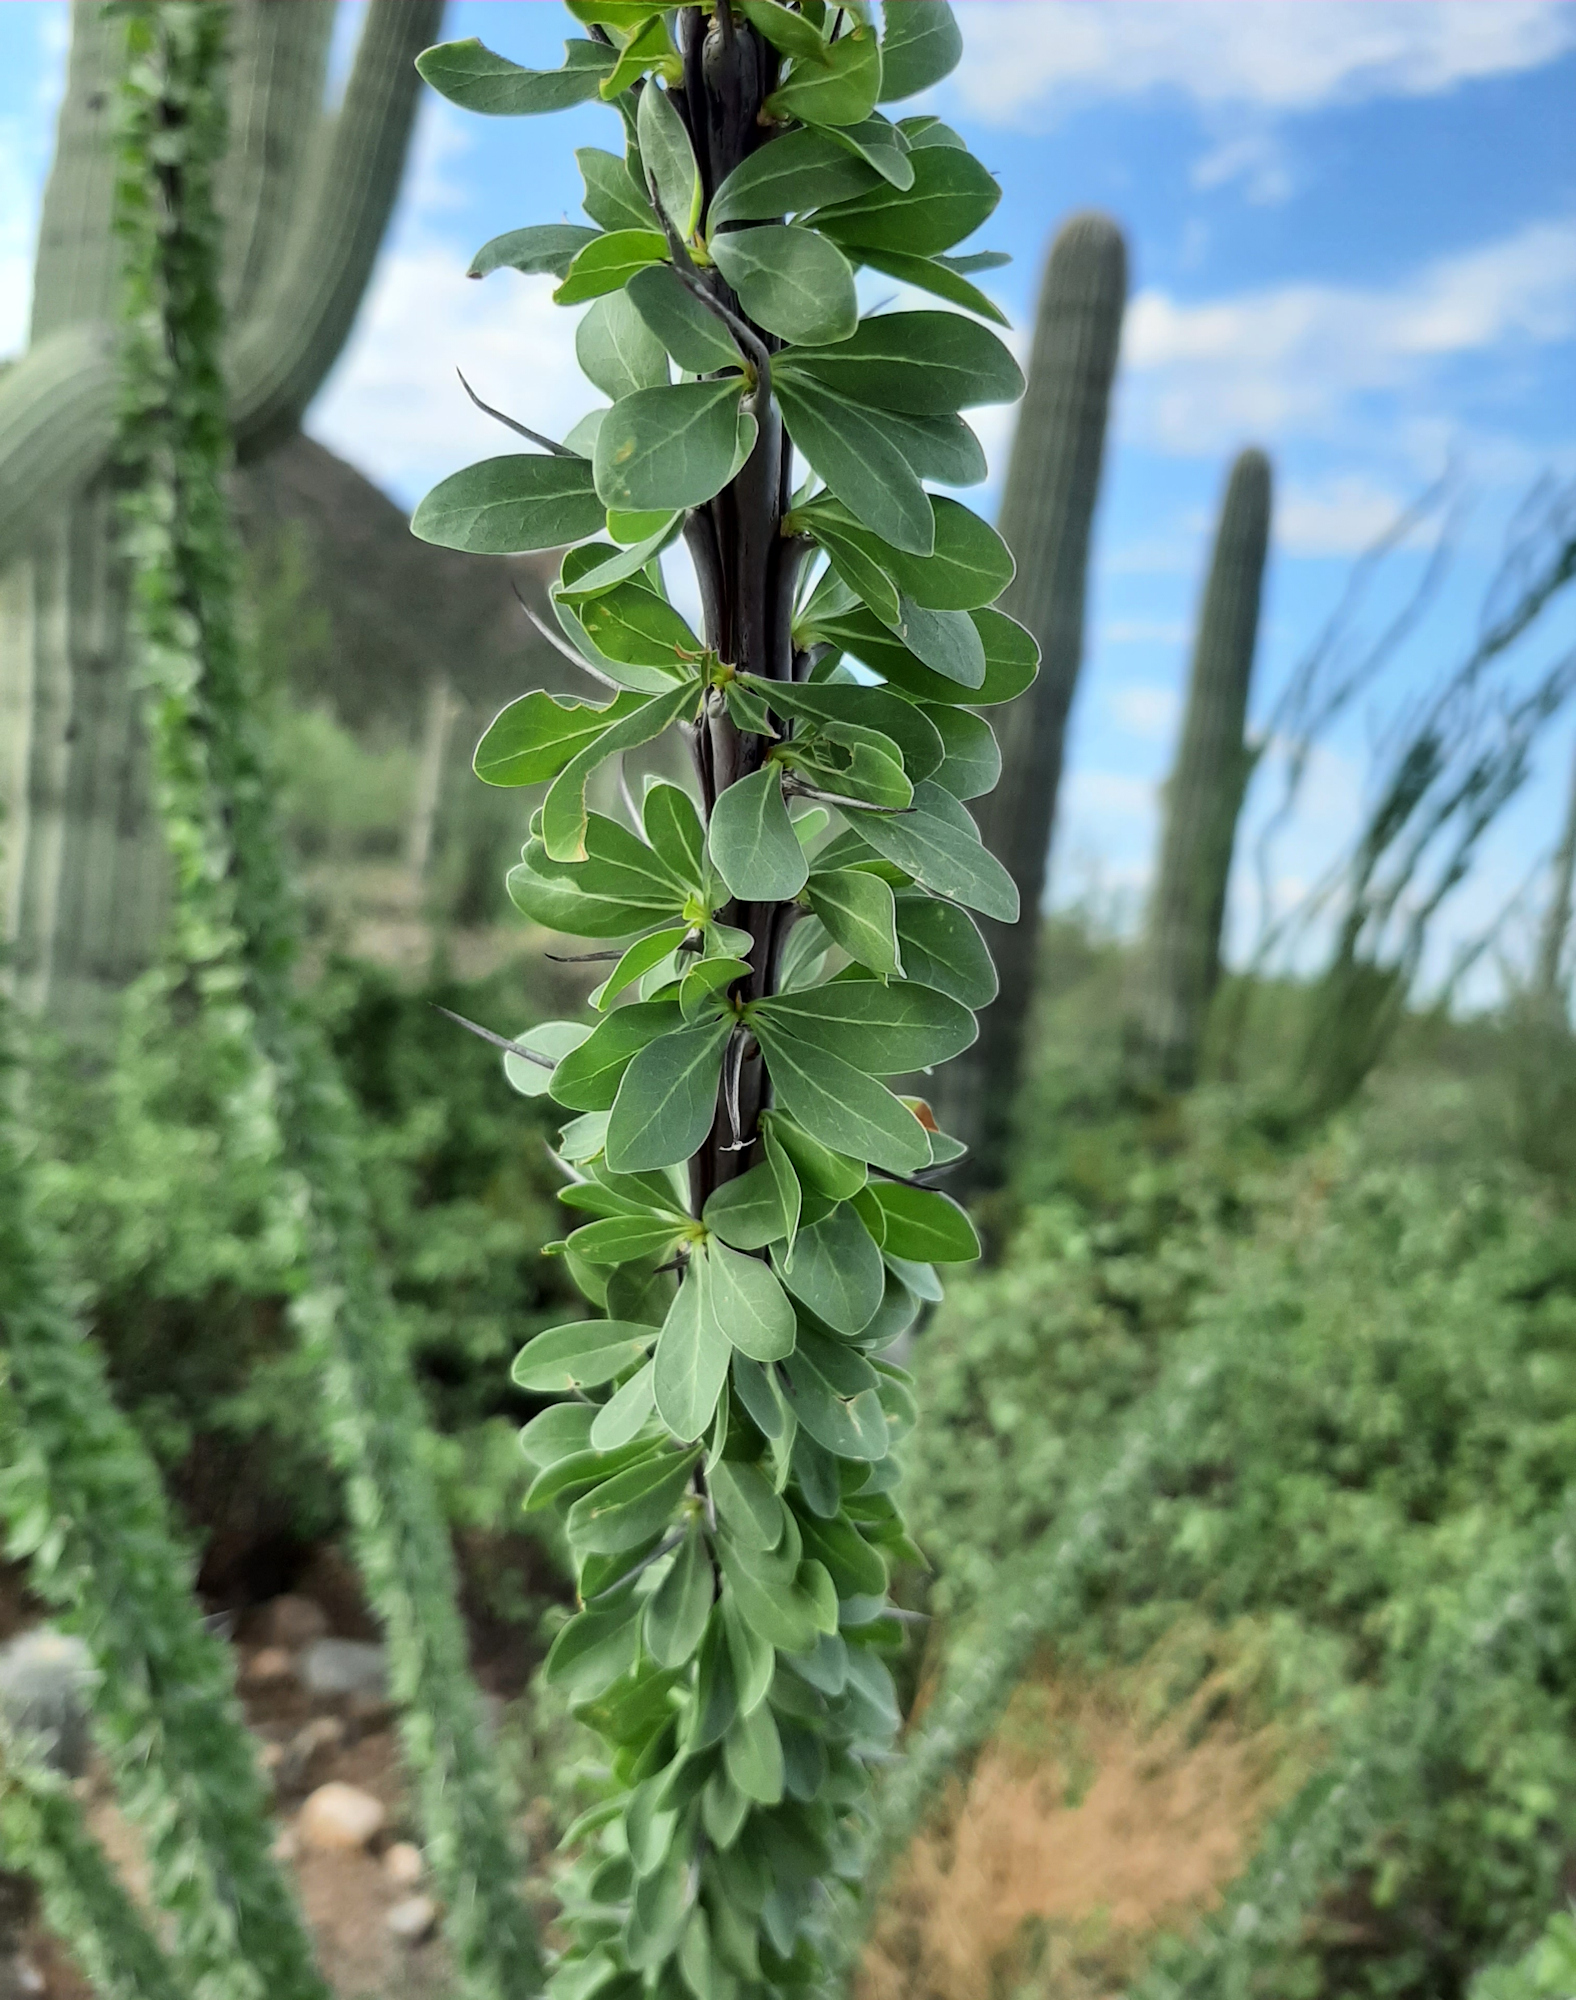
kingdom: Plantae
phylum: Tracheophyta
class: Magnoliopsida
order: Ericales
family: Fouquieriaceae
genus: Fouquieria
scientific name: Fouquieria splendens
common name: Vine-cactus
